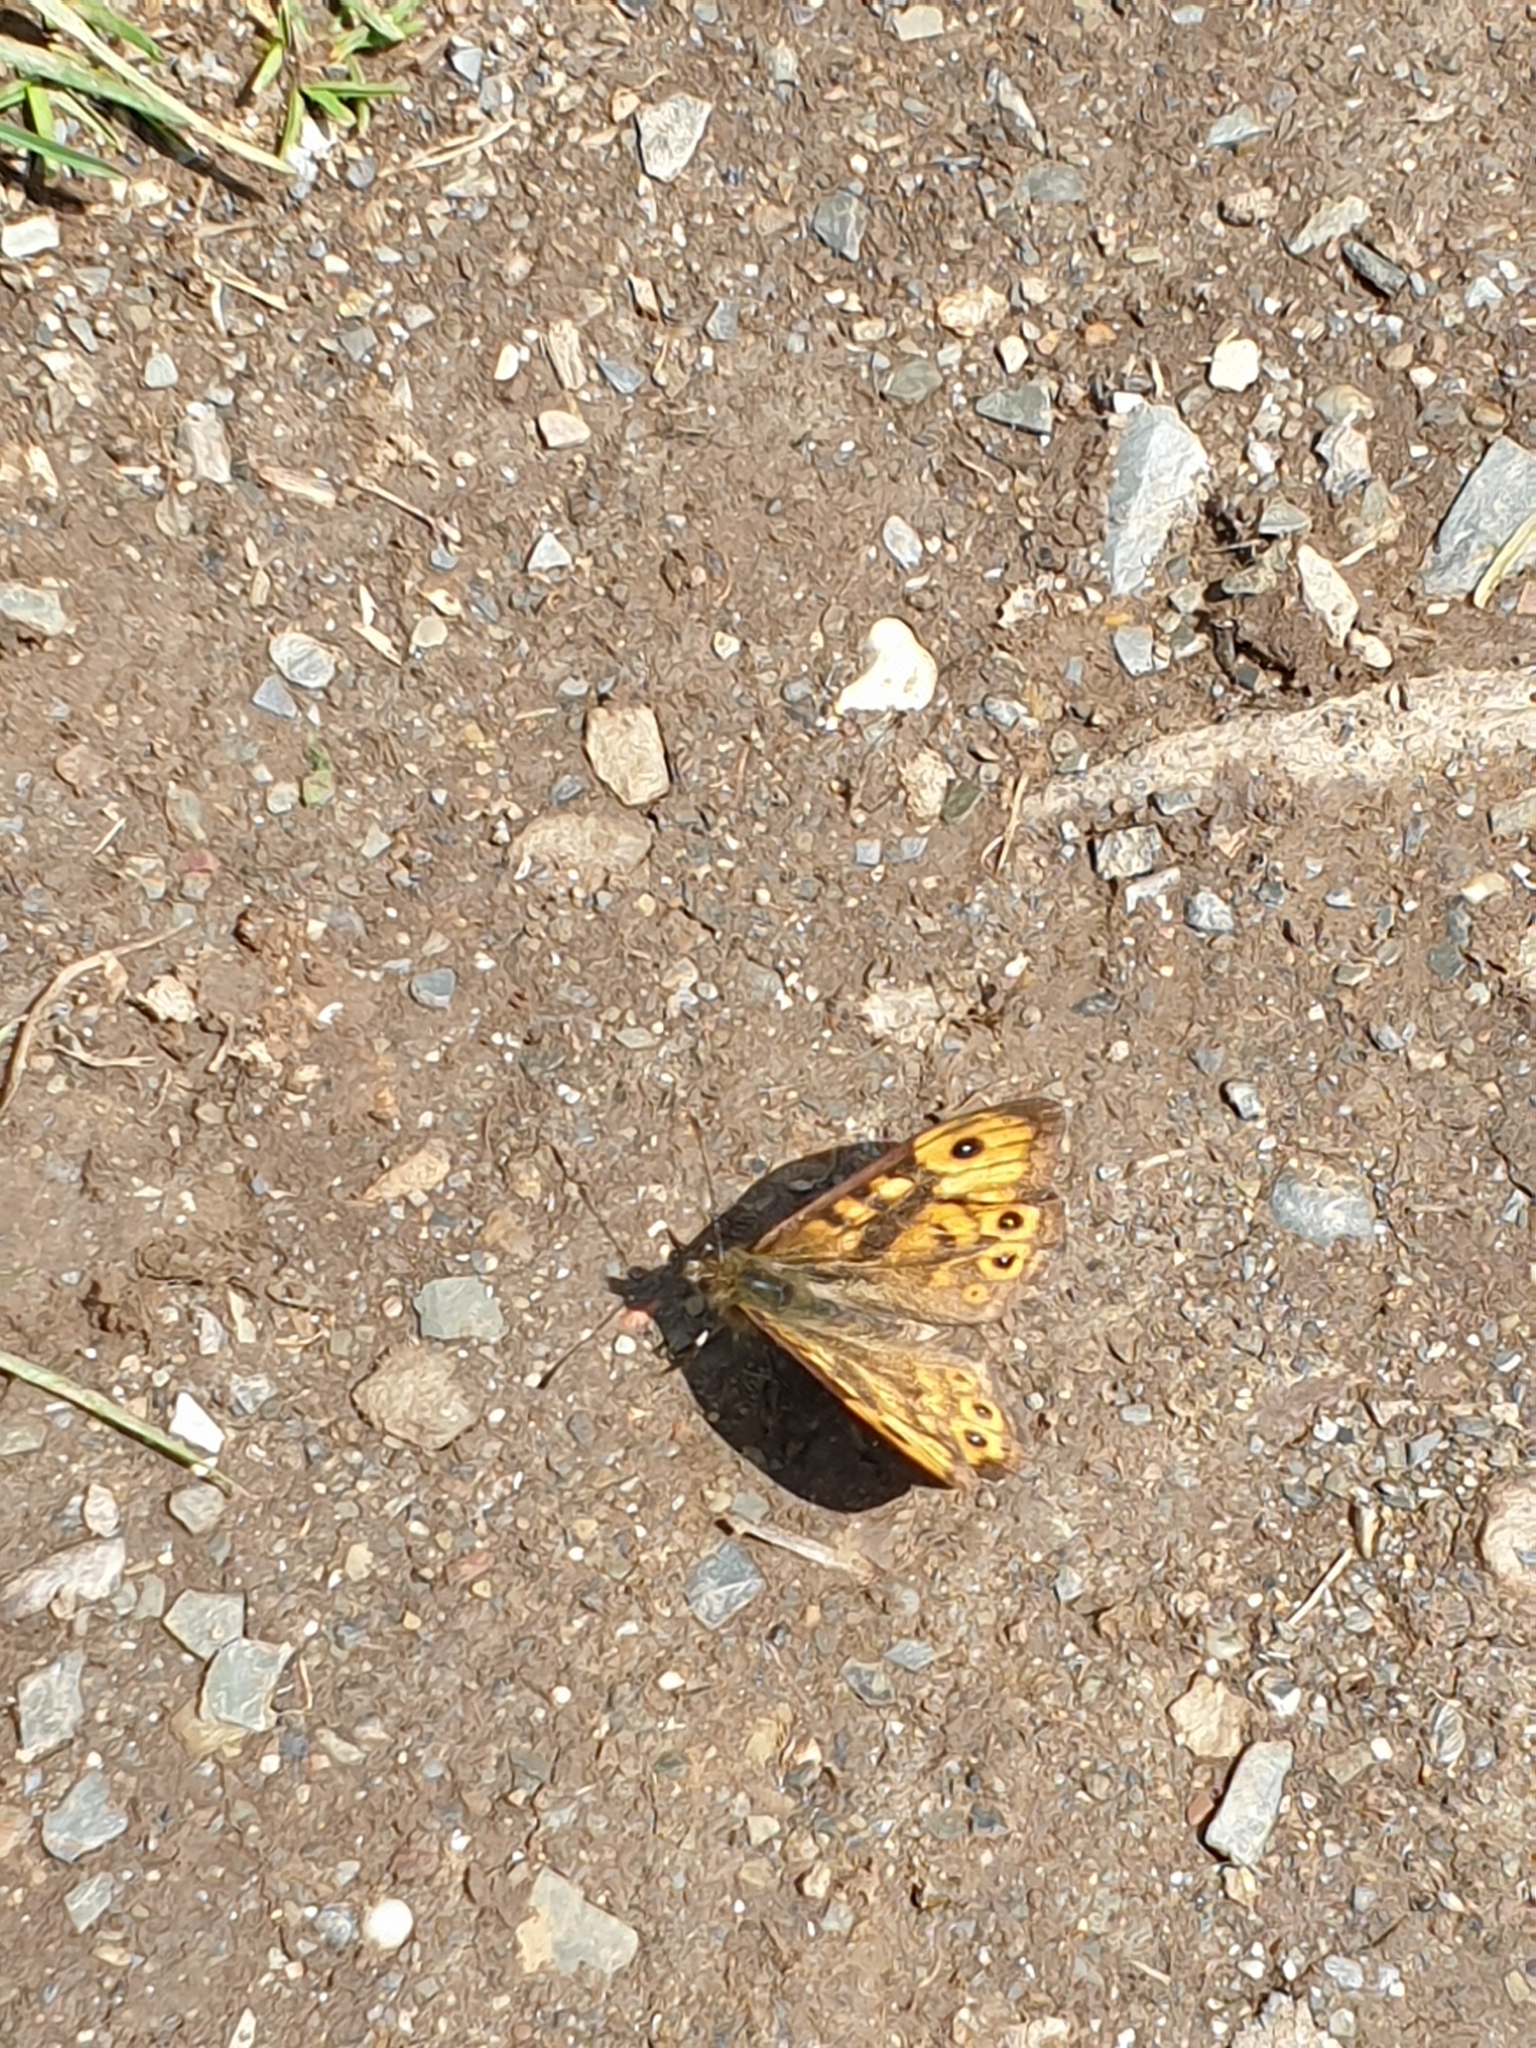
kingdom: Animalia
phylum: Arthropoda
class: Insecta
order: Lepidoptera
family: Nymphalidae
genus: Pararge
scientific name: Pararge Lasiommata megera
